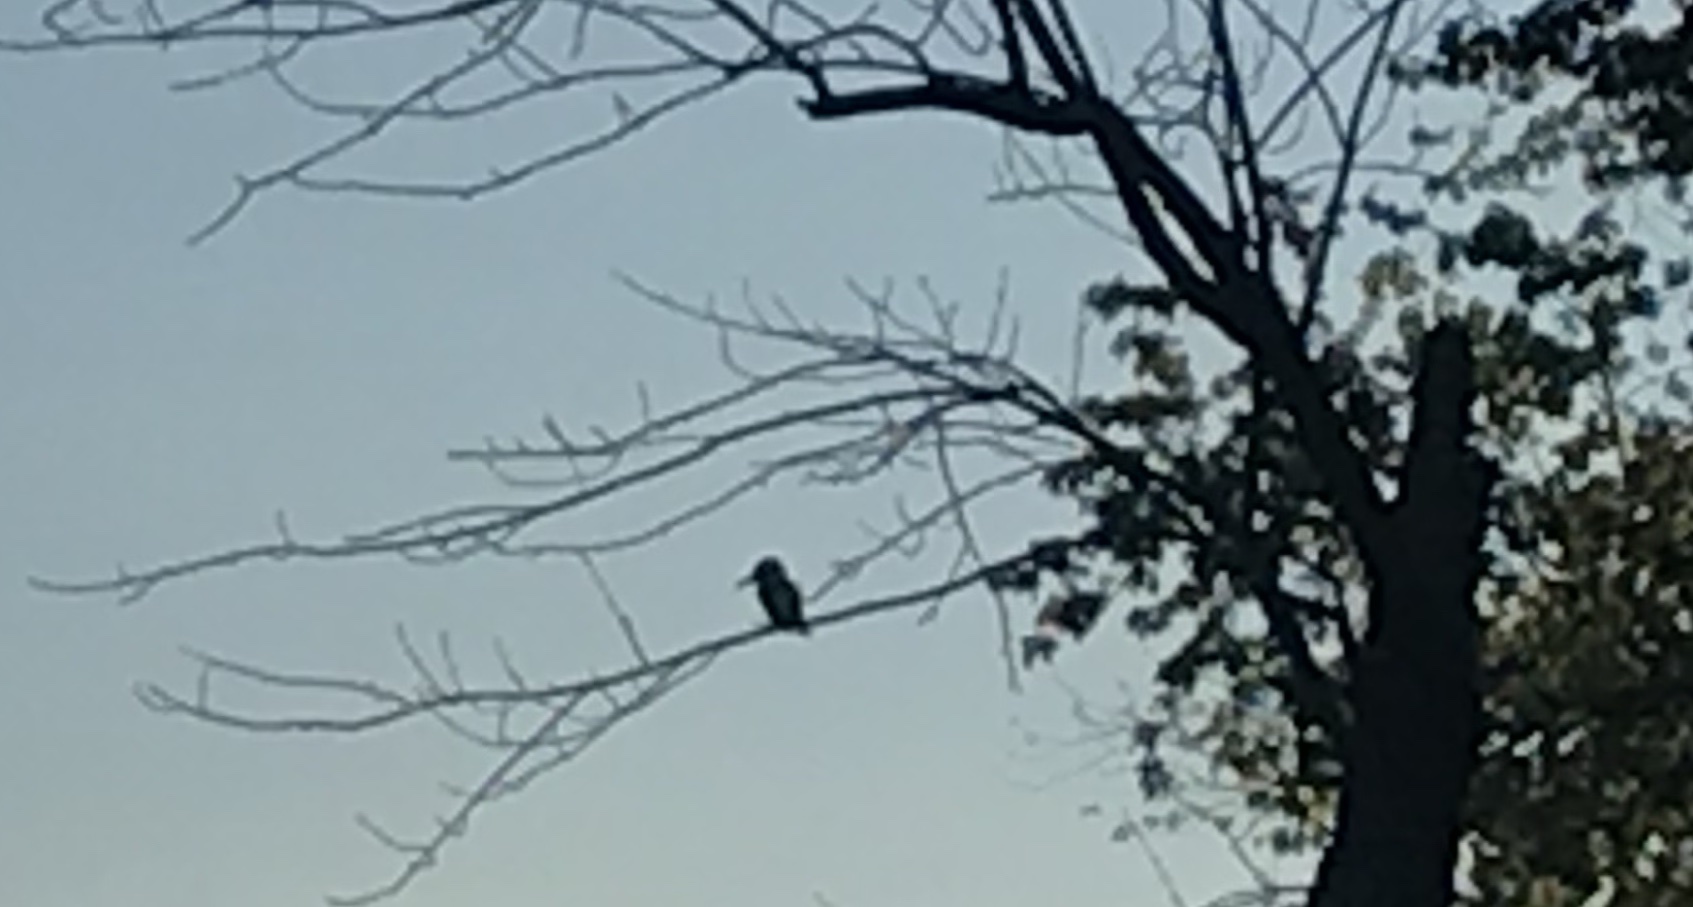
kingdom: Animalia
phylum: Chordata
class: Aves
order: Coraciiformes
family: Alcedinidae
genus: Megaceryle
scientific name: Megaceryle alcyon
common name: Belted kingfisher
